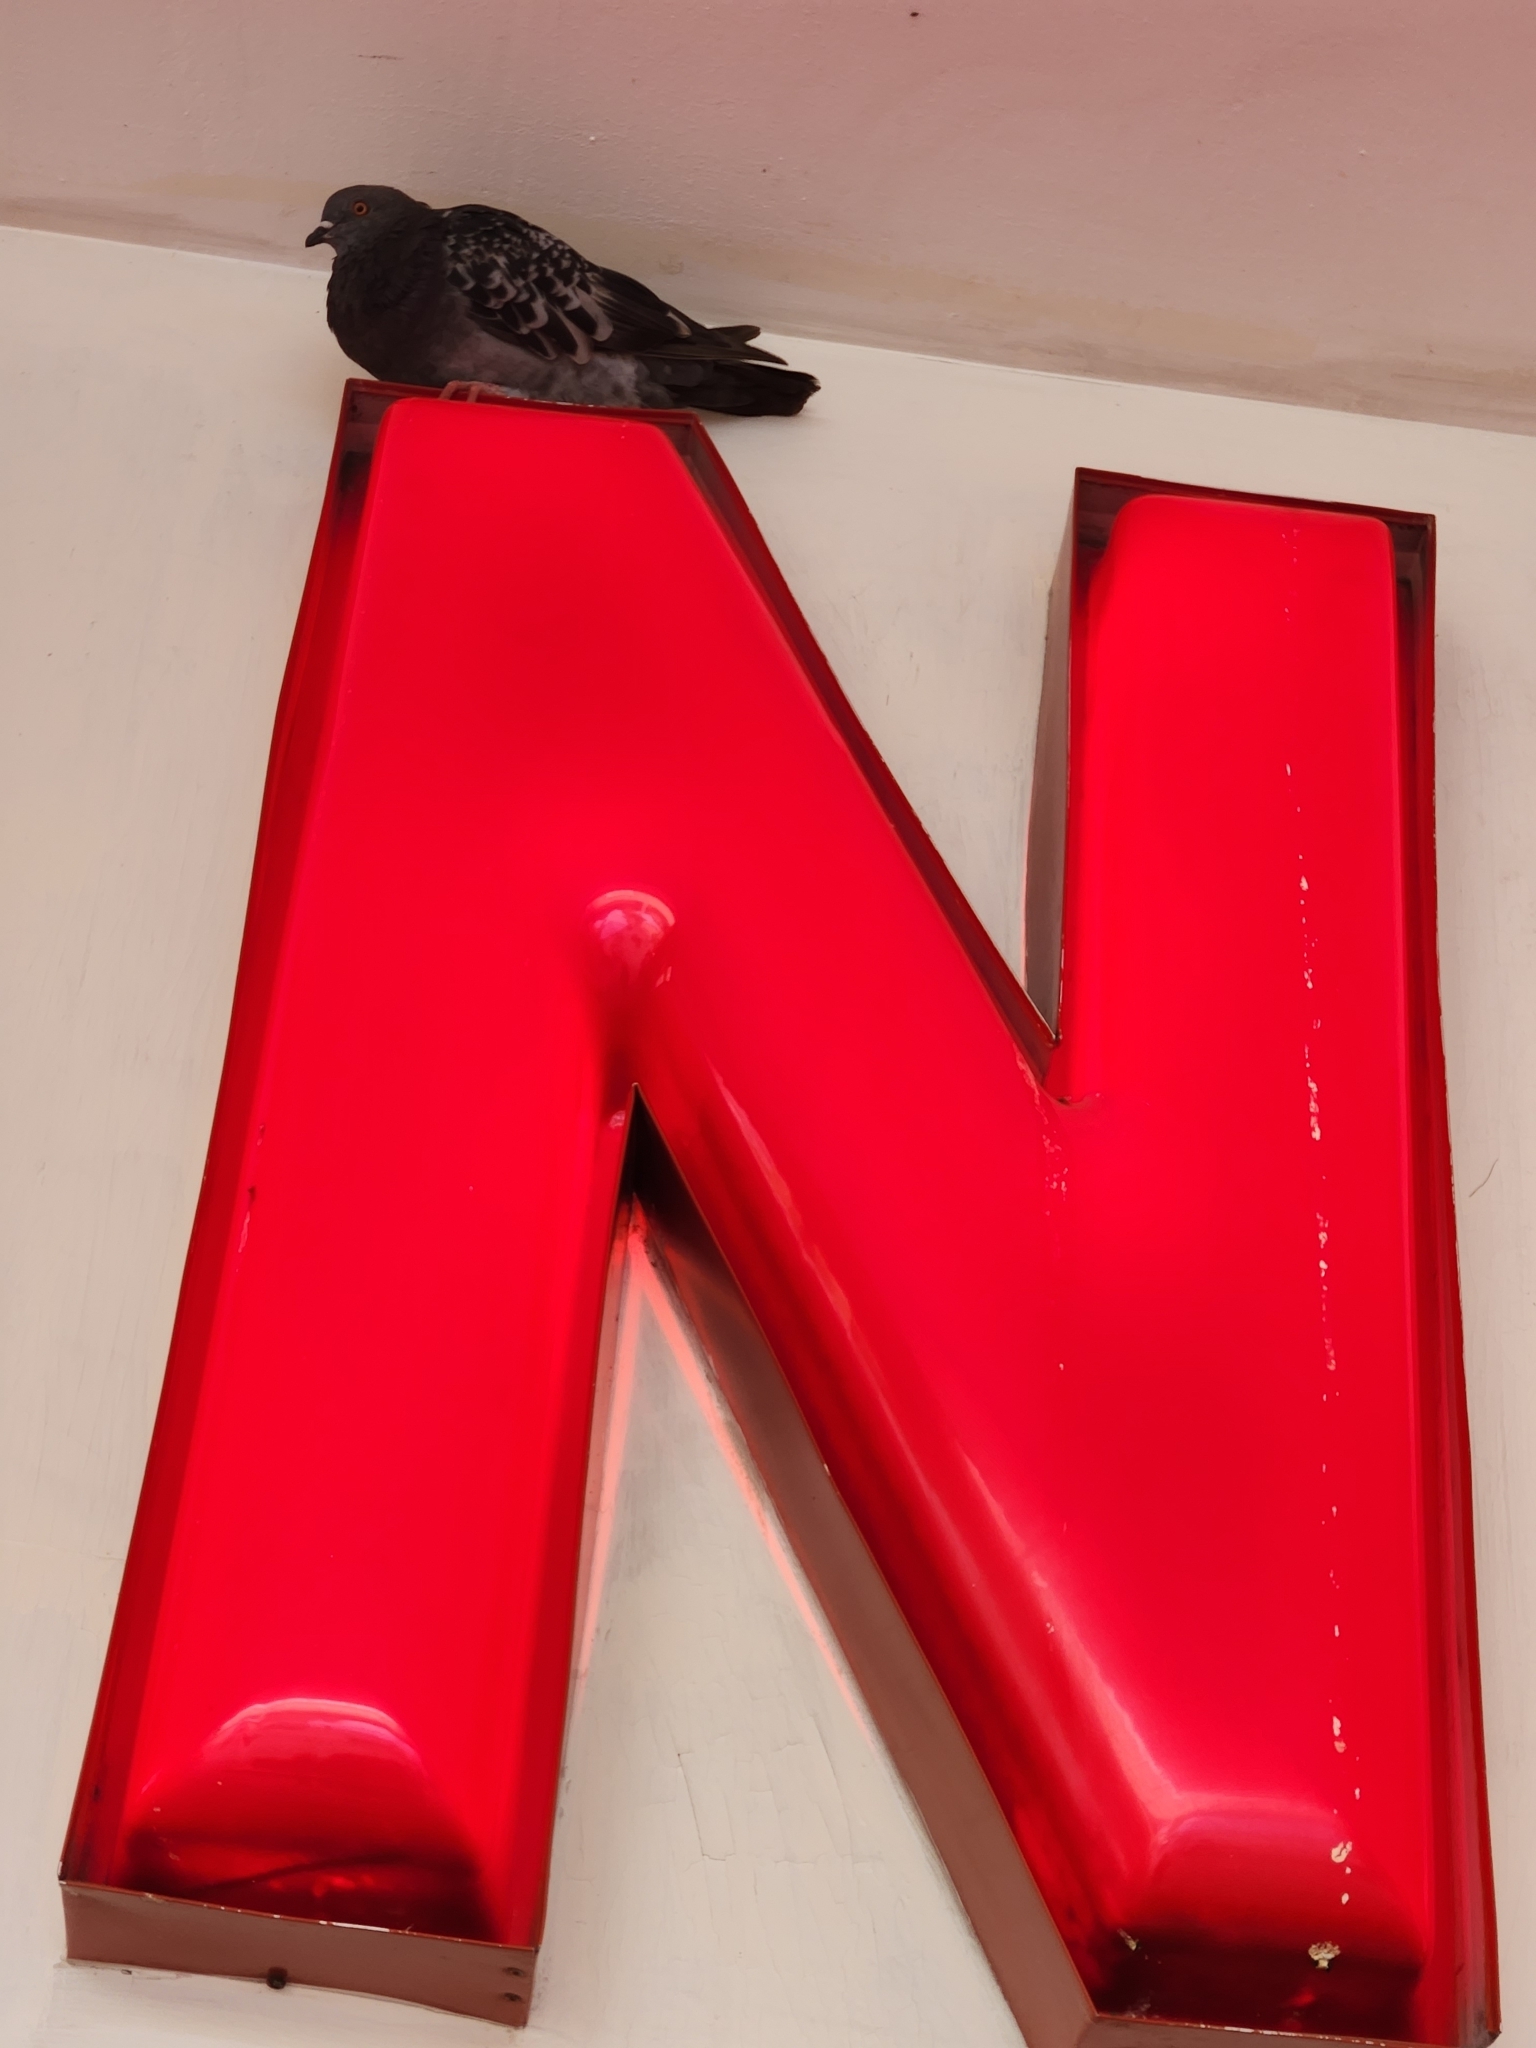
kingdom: Animalia
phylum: Chordata
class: Aves
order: Columbiformes
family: Columbidae
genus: Columba
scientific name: Columba livia
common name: Rock pigeon
